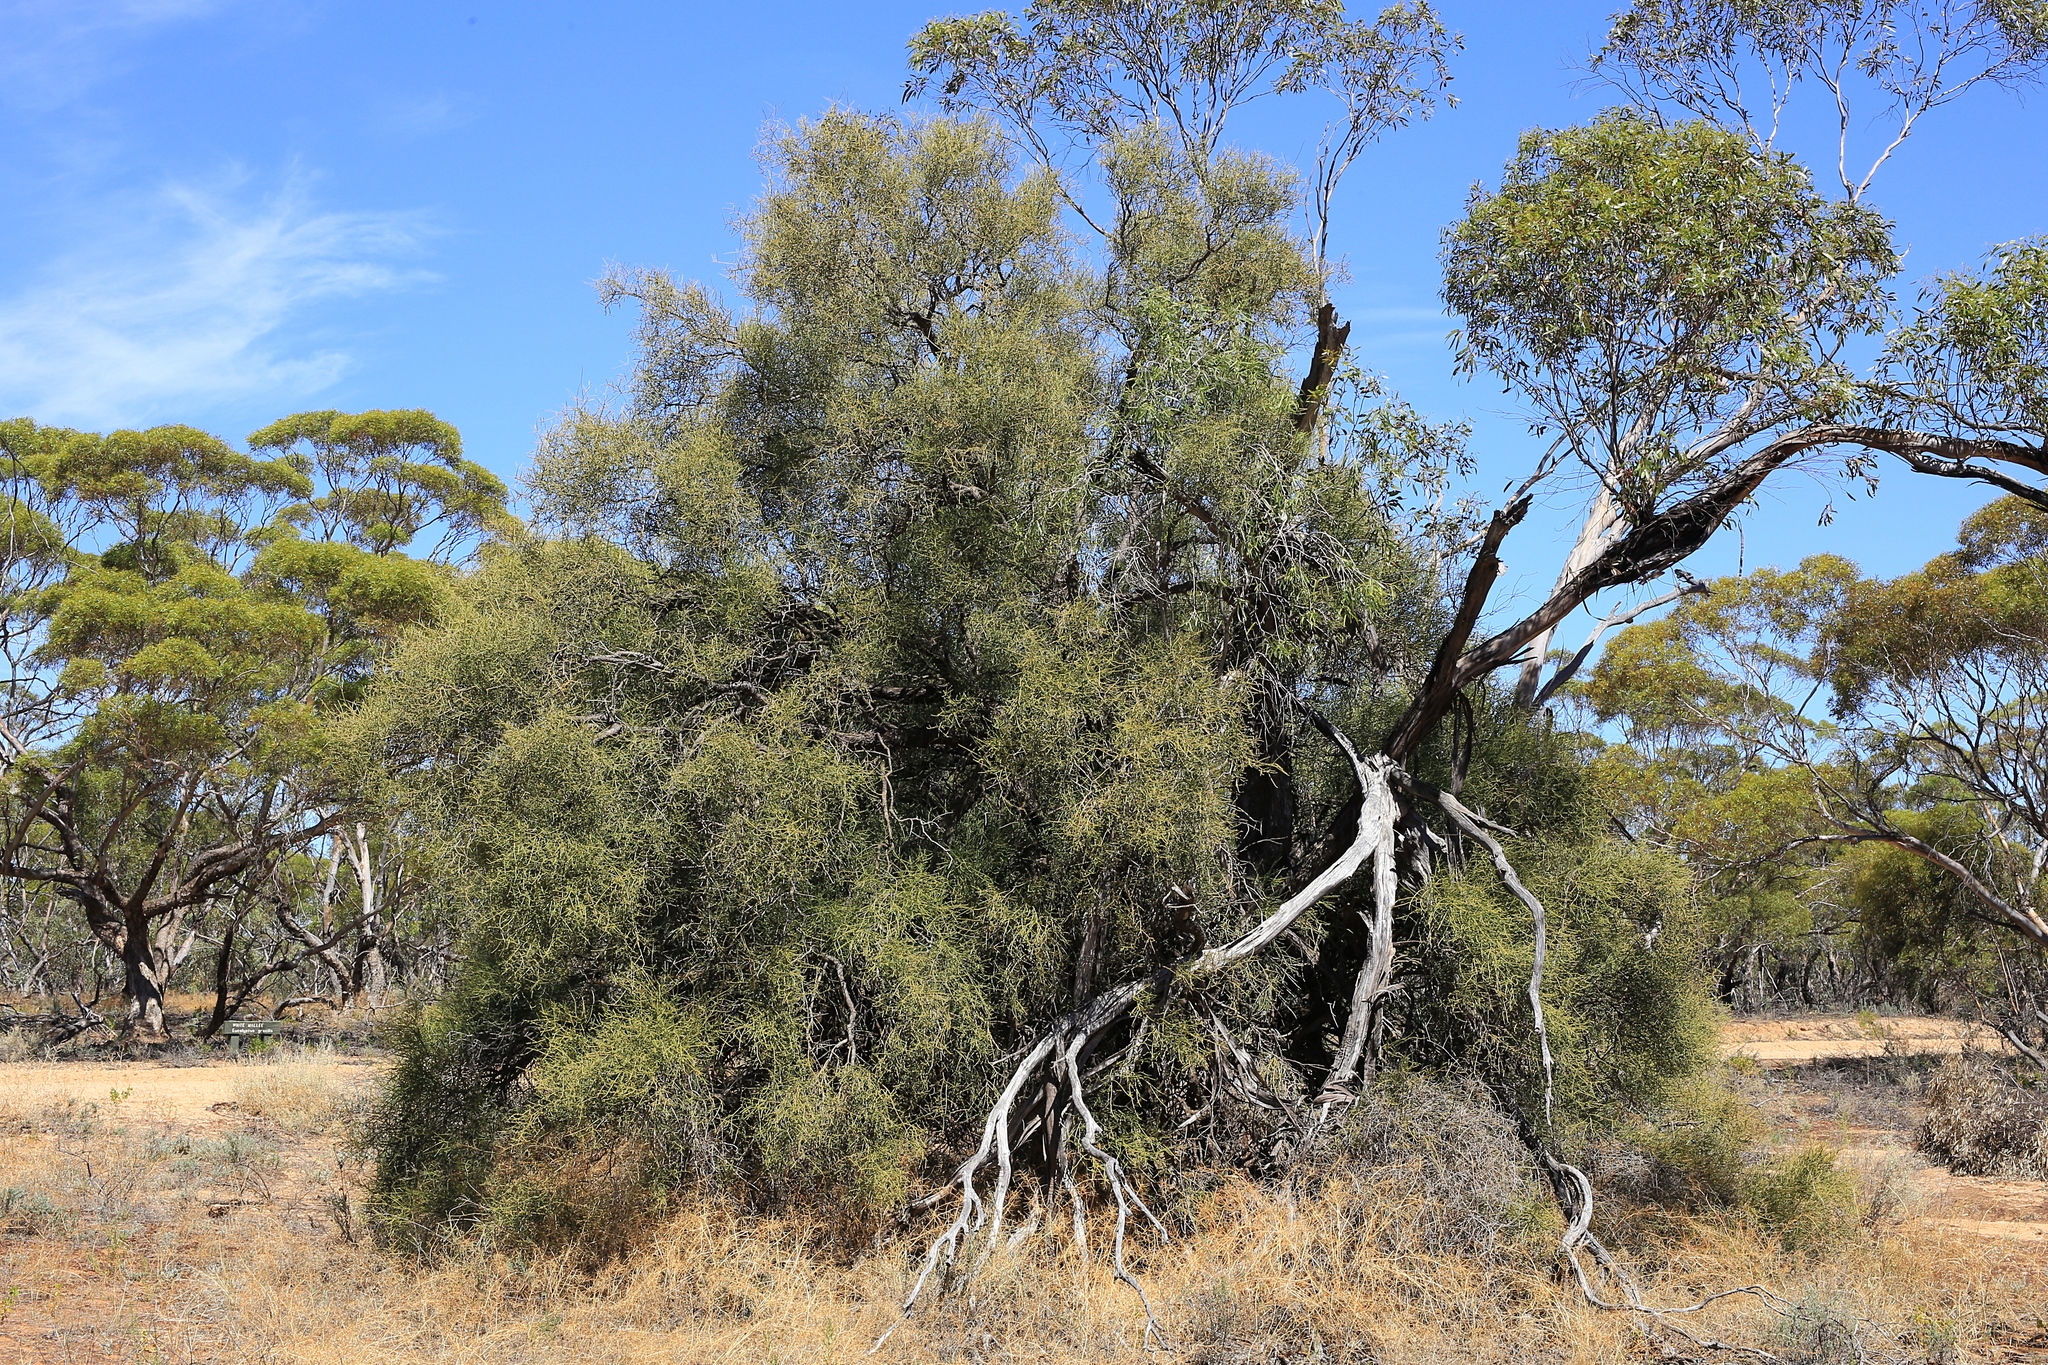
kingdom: Plantae
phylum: Tracheophyta
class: Magnoliopsida
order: Santalales
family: Santalaceae
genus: Exocarpos
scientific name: Exocarpos aphyllus
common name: Leafless ballart
